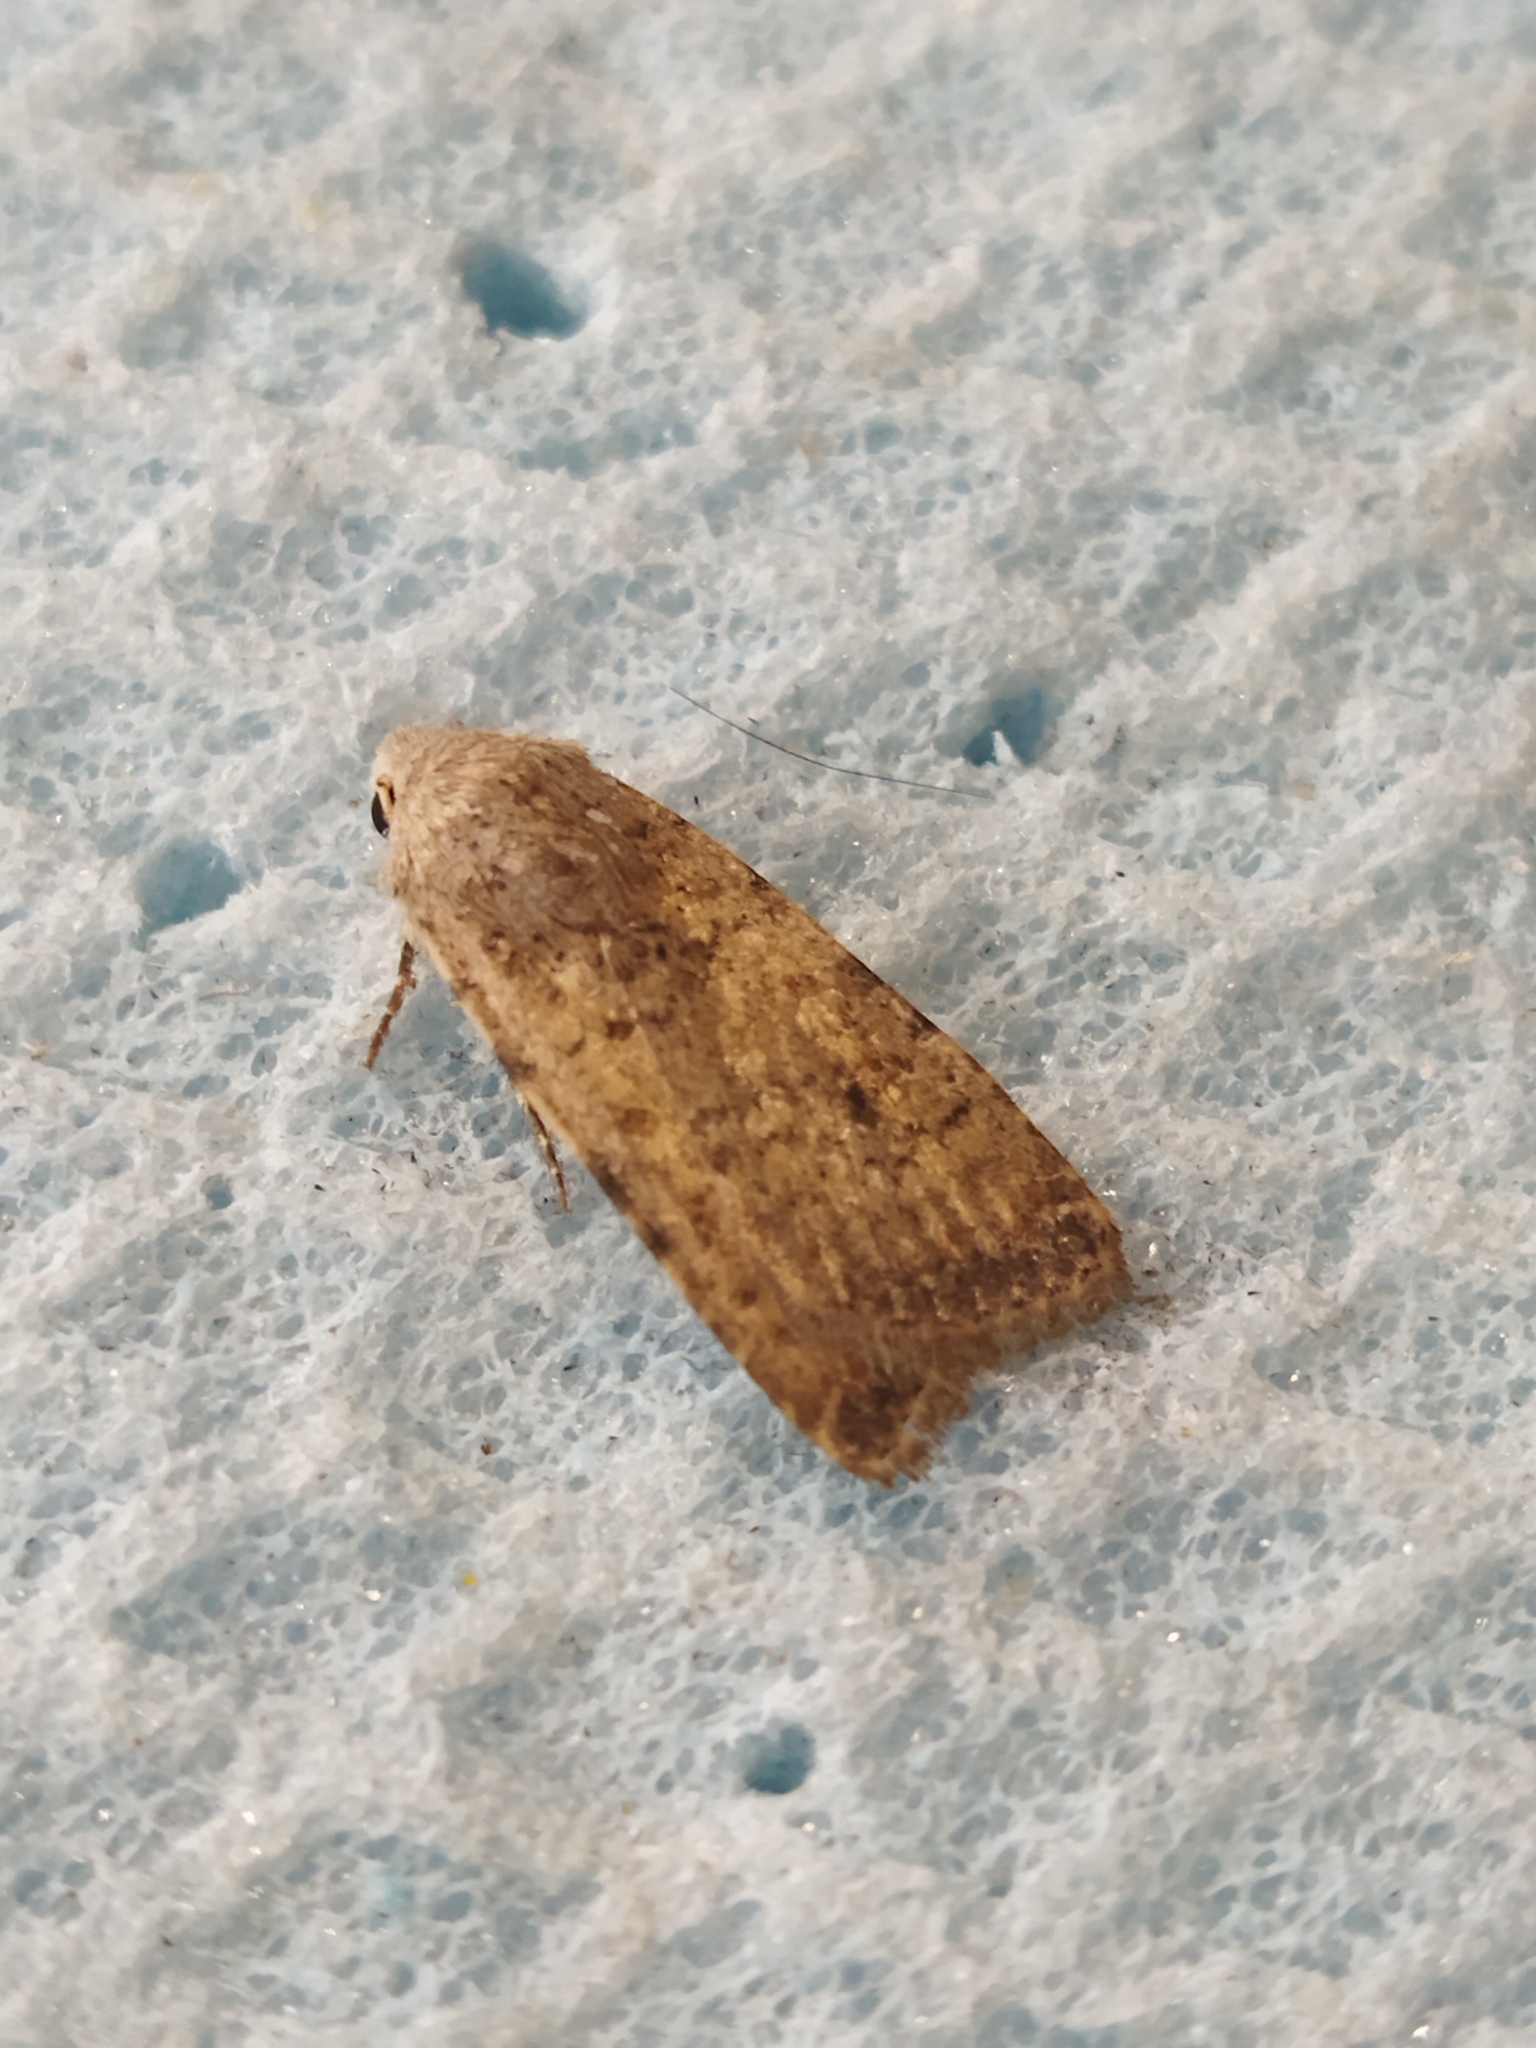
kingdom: Animalia
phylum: Arthropoda
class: Insecta
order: Lepidoptera
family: Noctuidae
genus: Caradrina
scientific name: Caradrina clavipalpis
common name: Pale mottled willow
